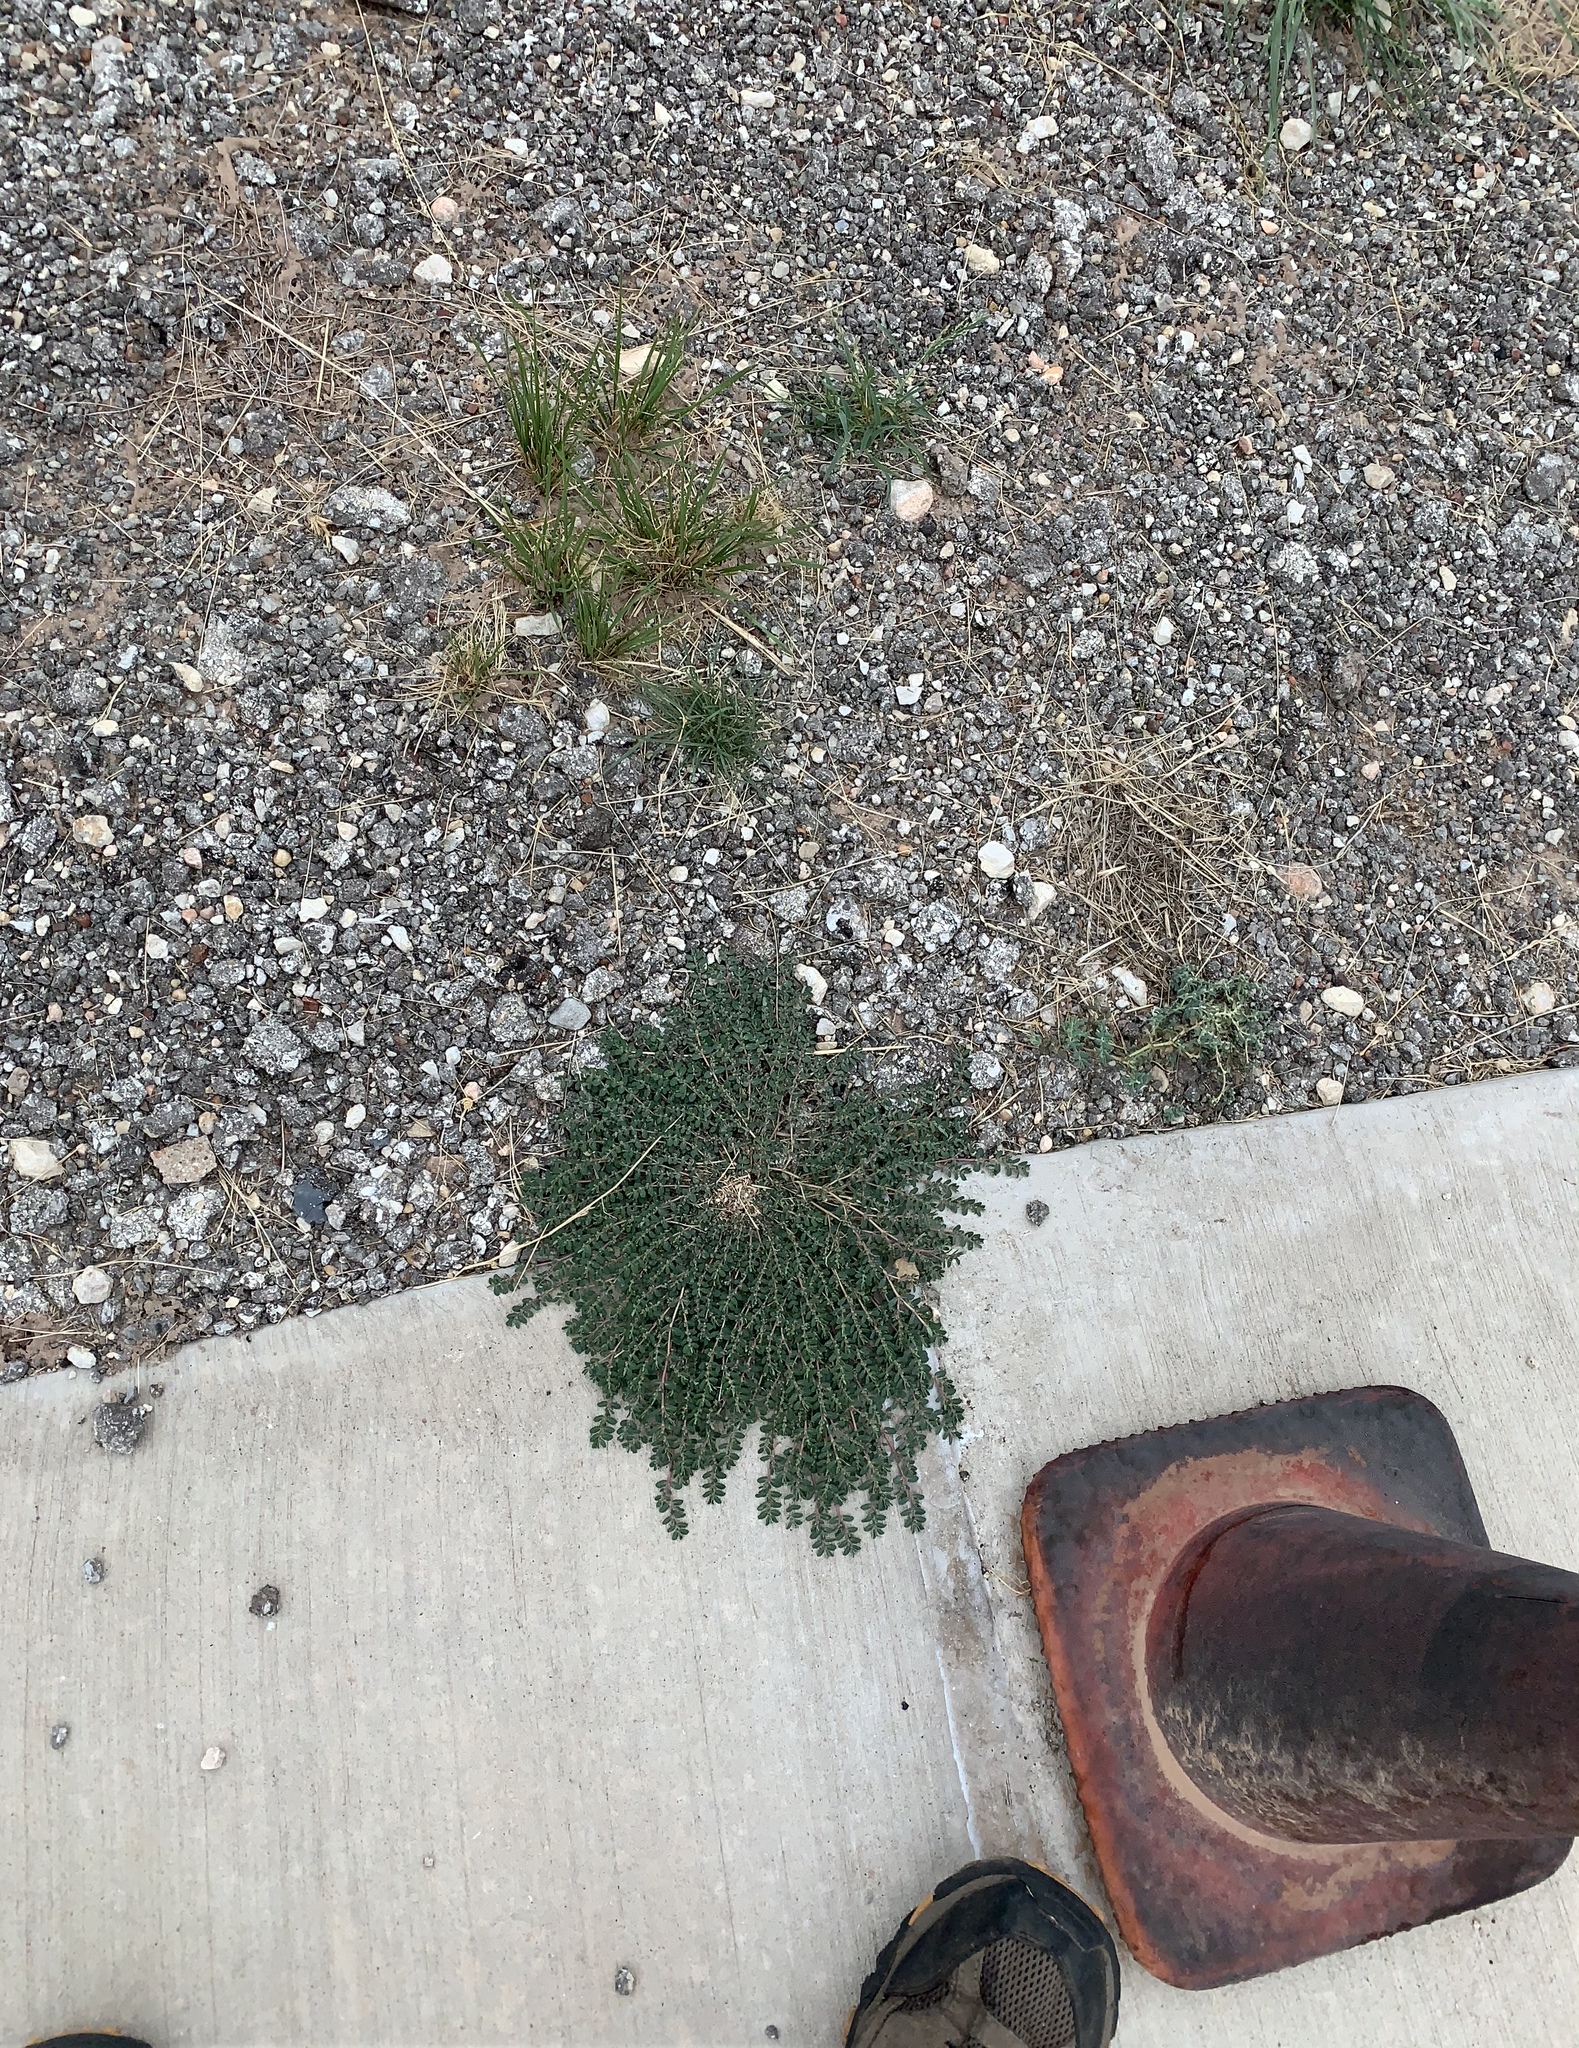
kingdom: Plantae
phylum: Tracheophyta
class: Magnoliopsida
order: Malpighiales
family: Euphorbiaceae
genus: Euphorbia
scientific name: Euphorbia prostrata
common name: Prostrate sandmat
